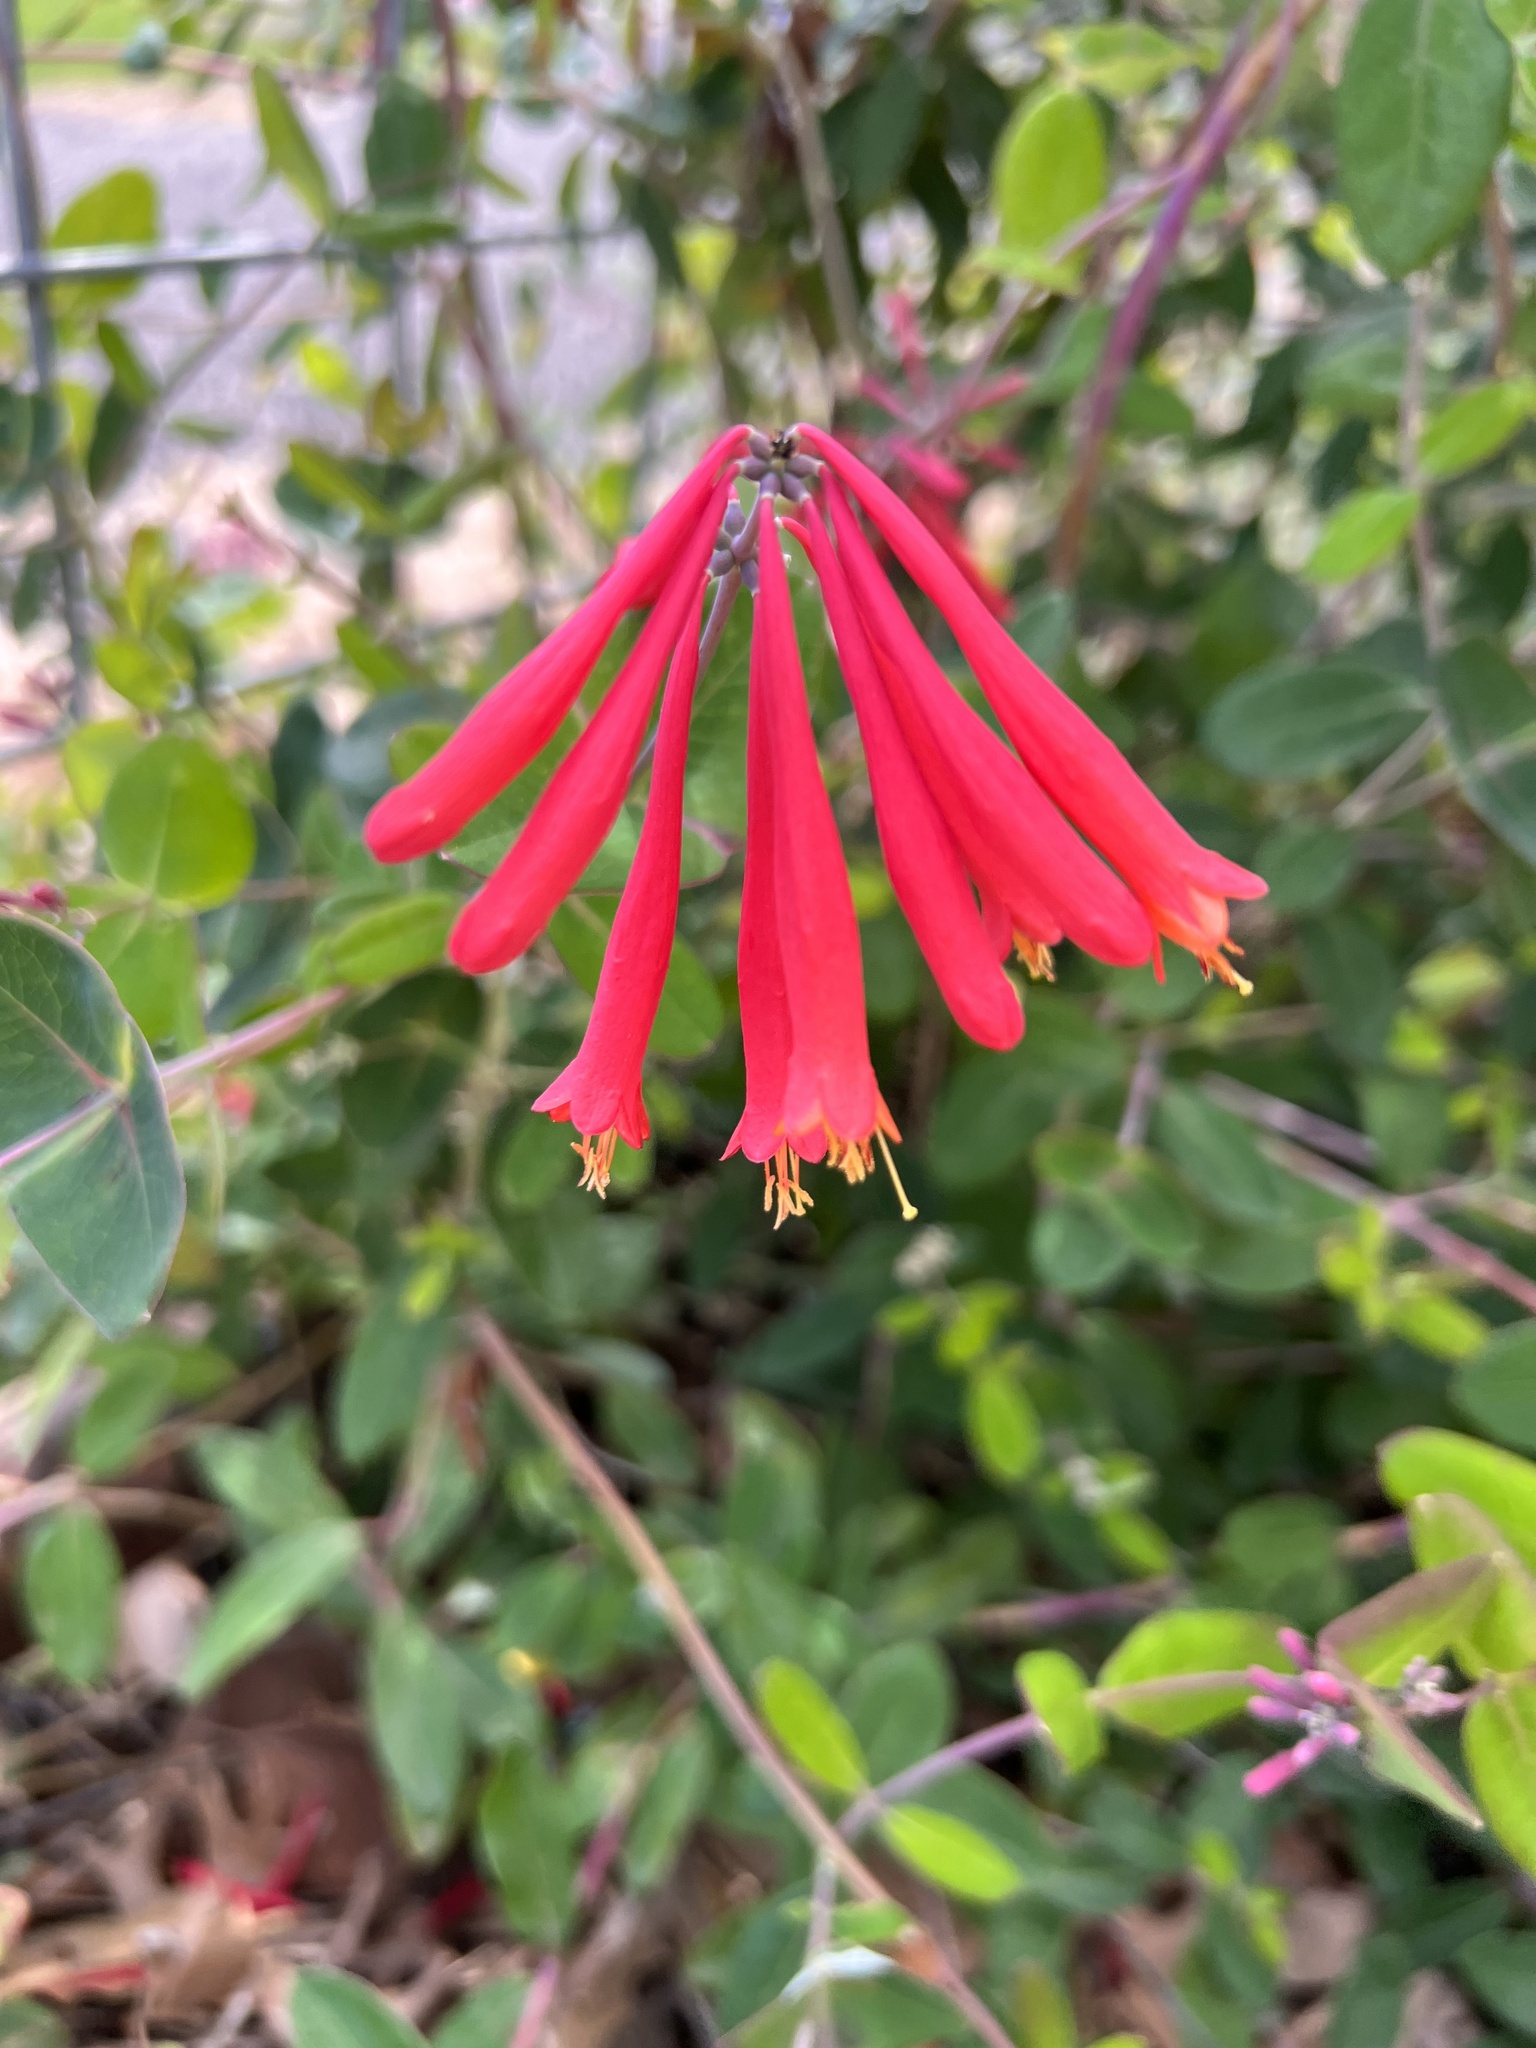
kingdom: Plantae
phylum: Tracheophyta
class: Magnoliopsida
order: Dipsacales
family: Caprifoliaceae
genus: Lonicera
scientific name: Lonicera sempervirens
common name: Coral honeysuckle
